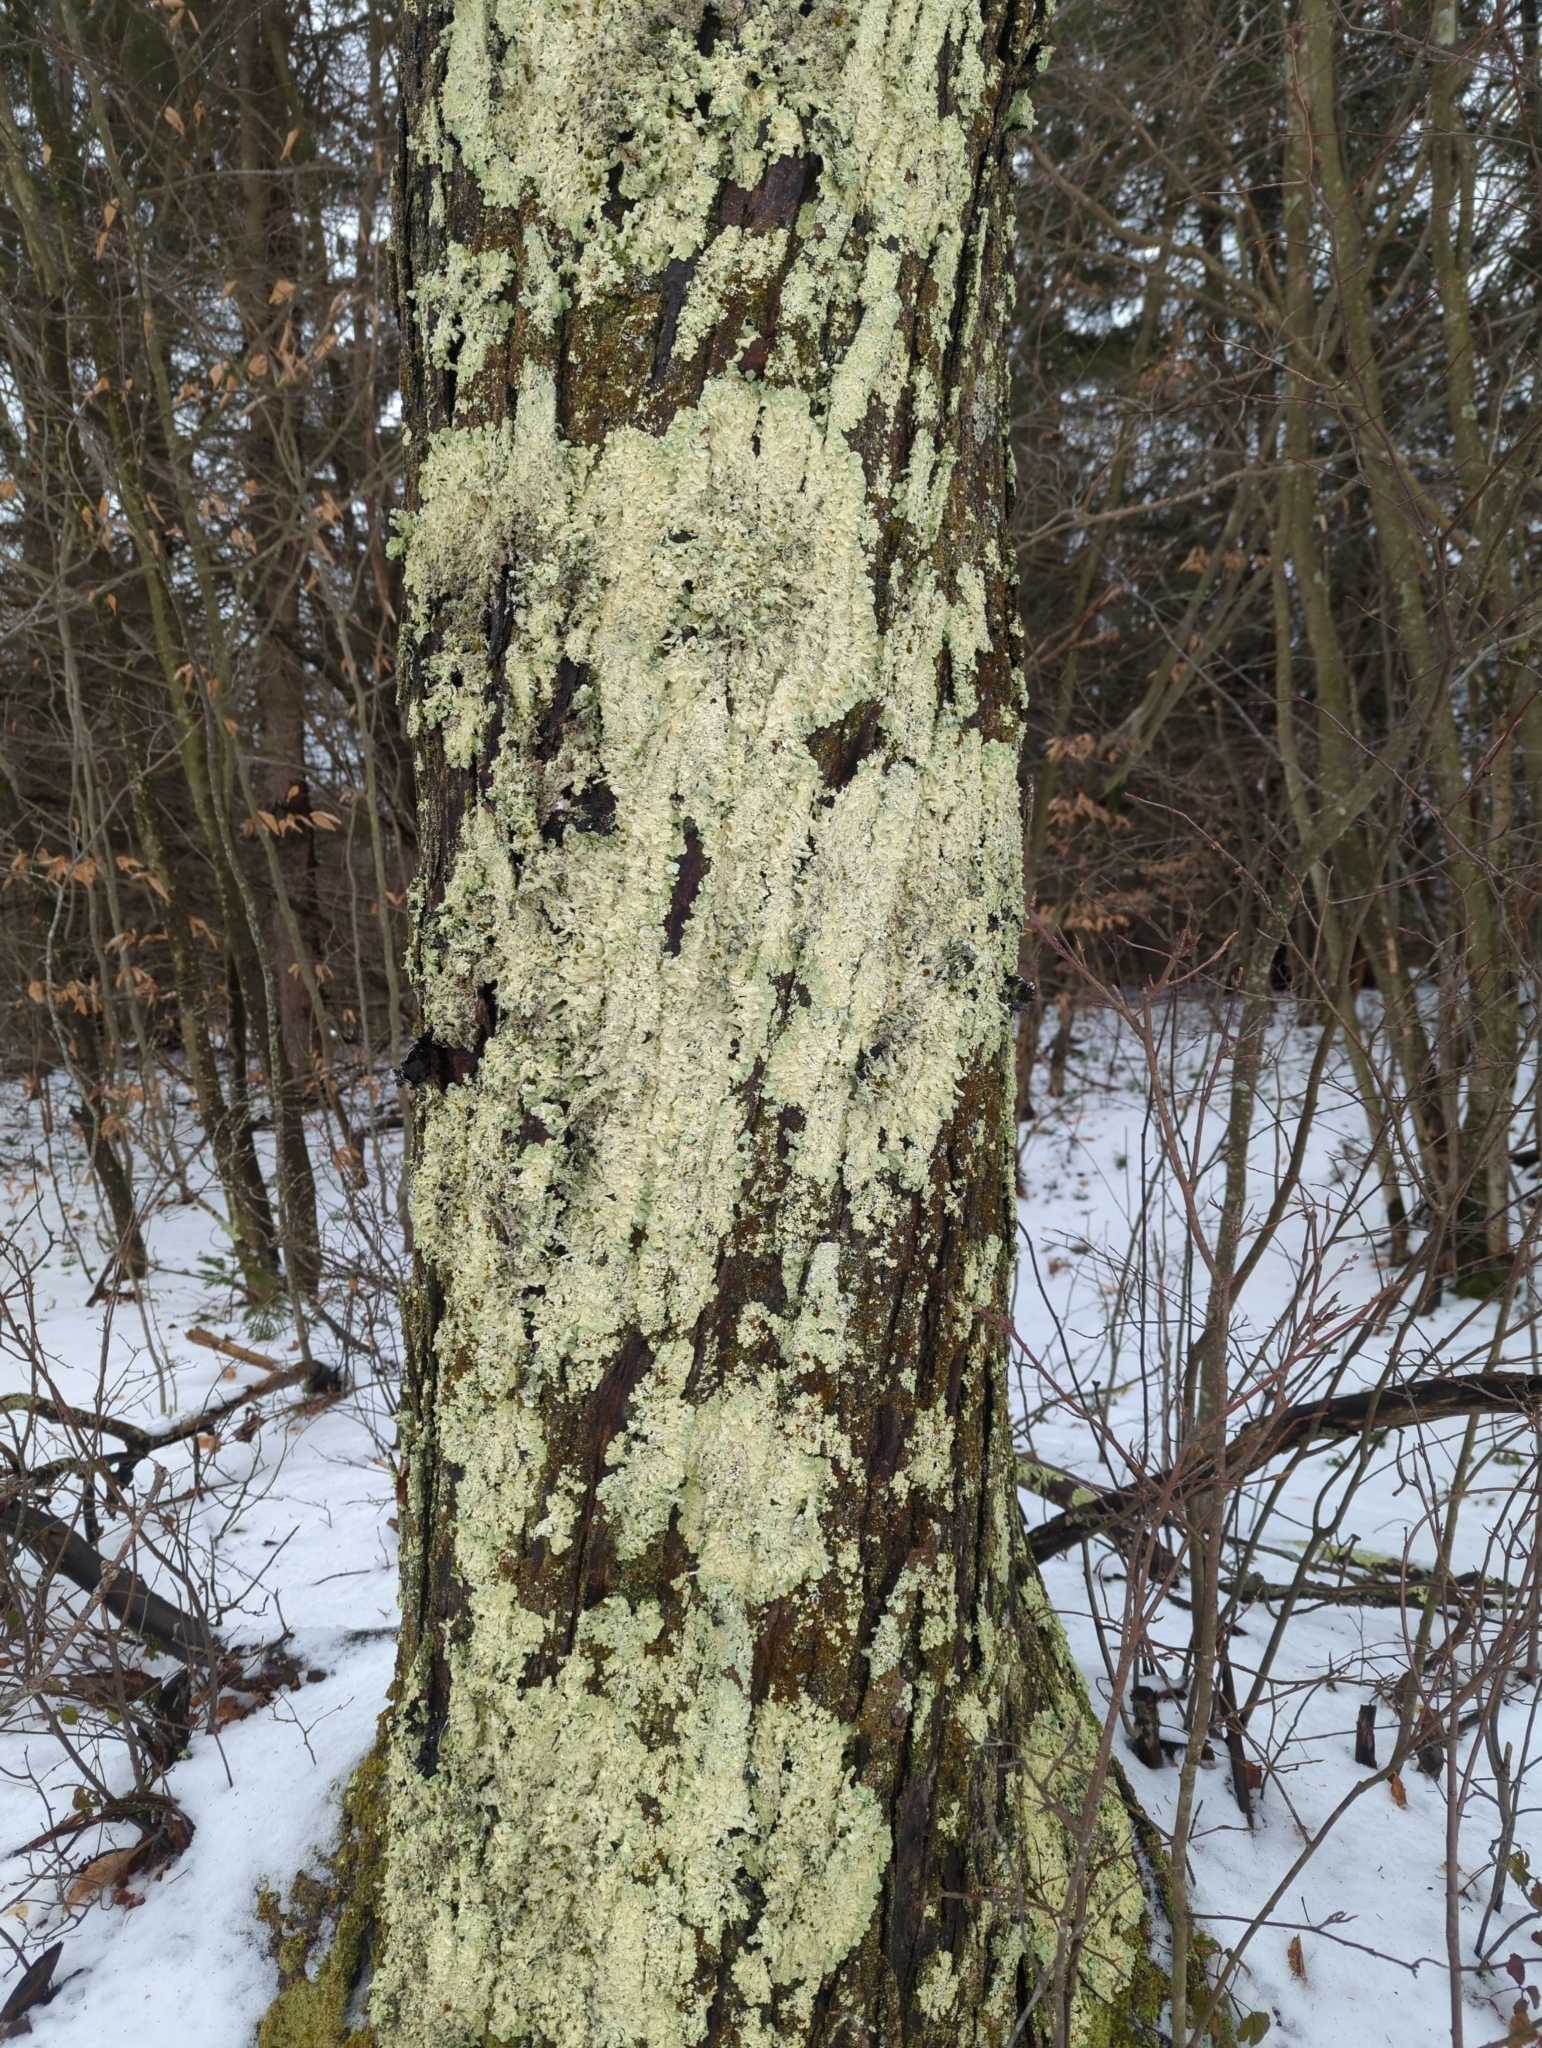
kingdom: Fungi
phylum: Ascomycota
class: Lecanoromycetes
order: Lecanorales
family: Parmeliaceae
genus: Flavoparmelia
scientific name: Flavoparmelia caperata
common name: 40-mile per hour lichen
